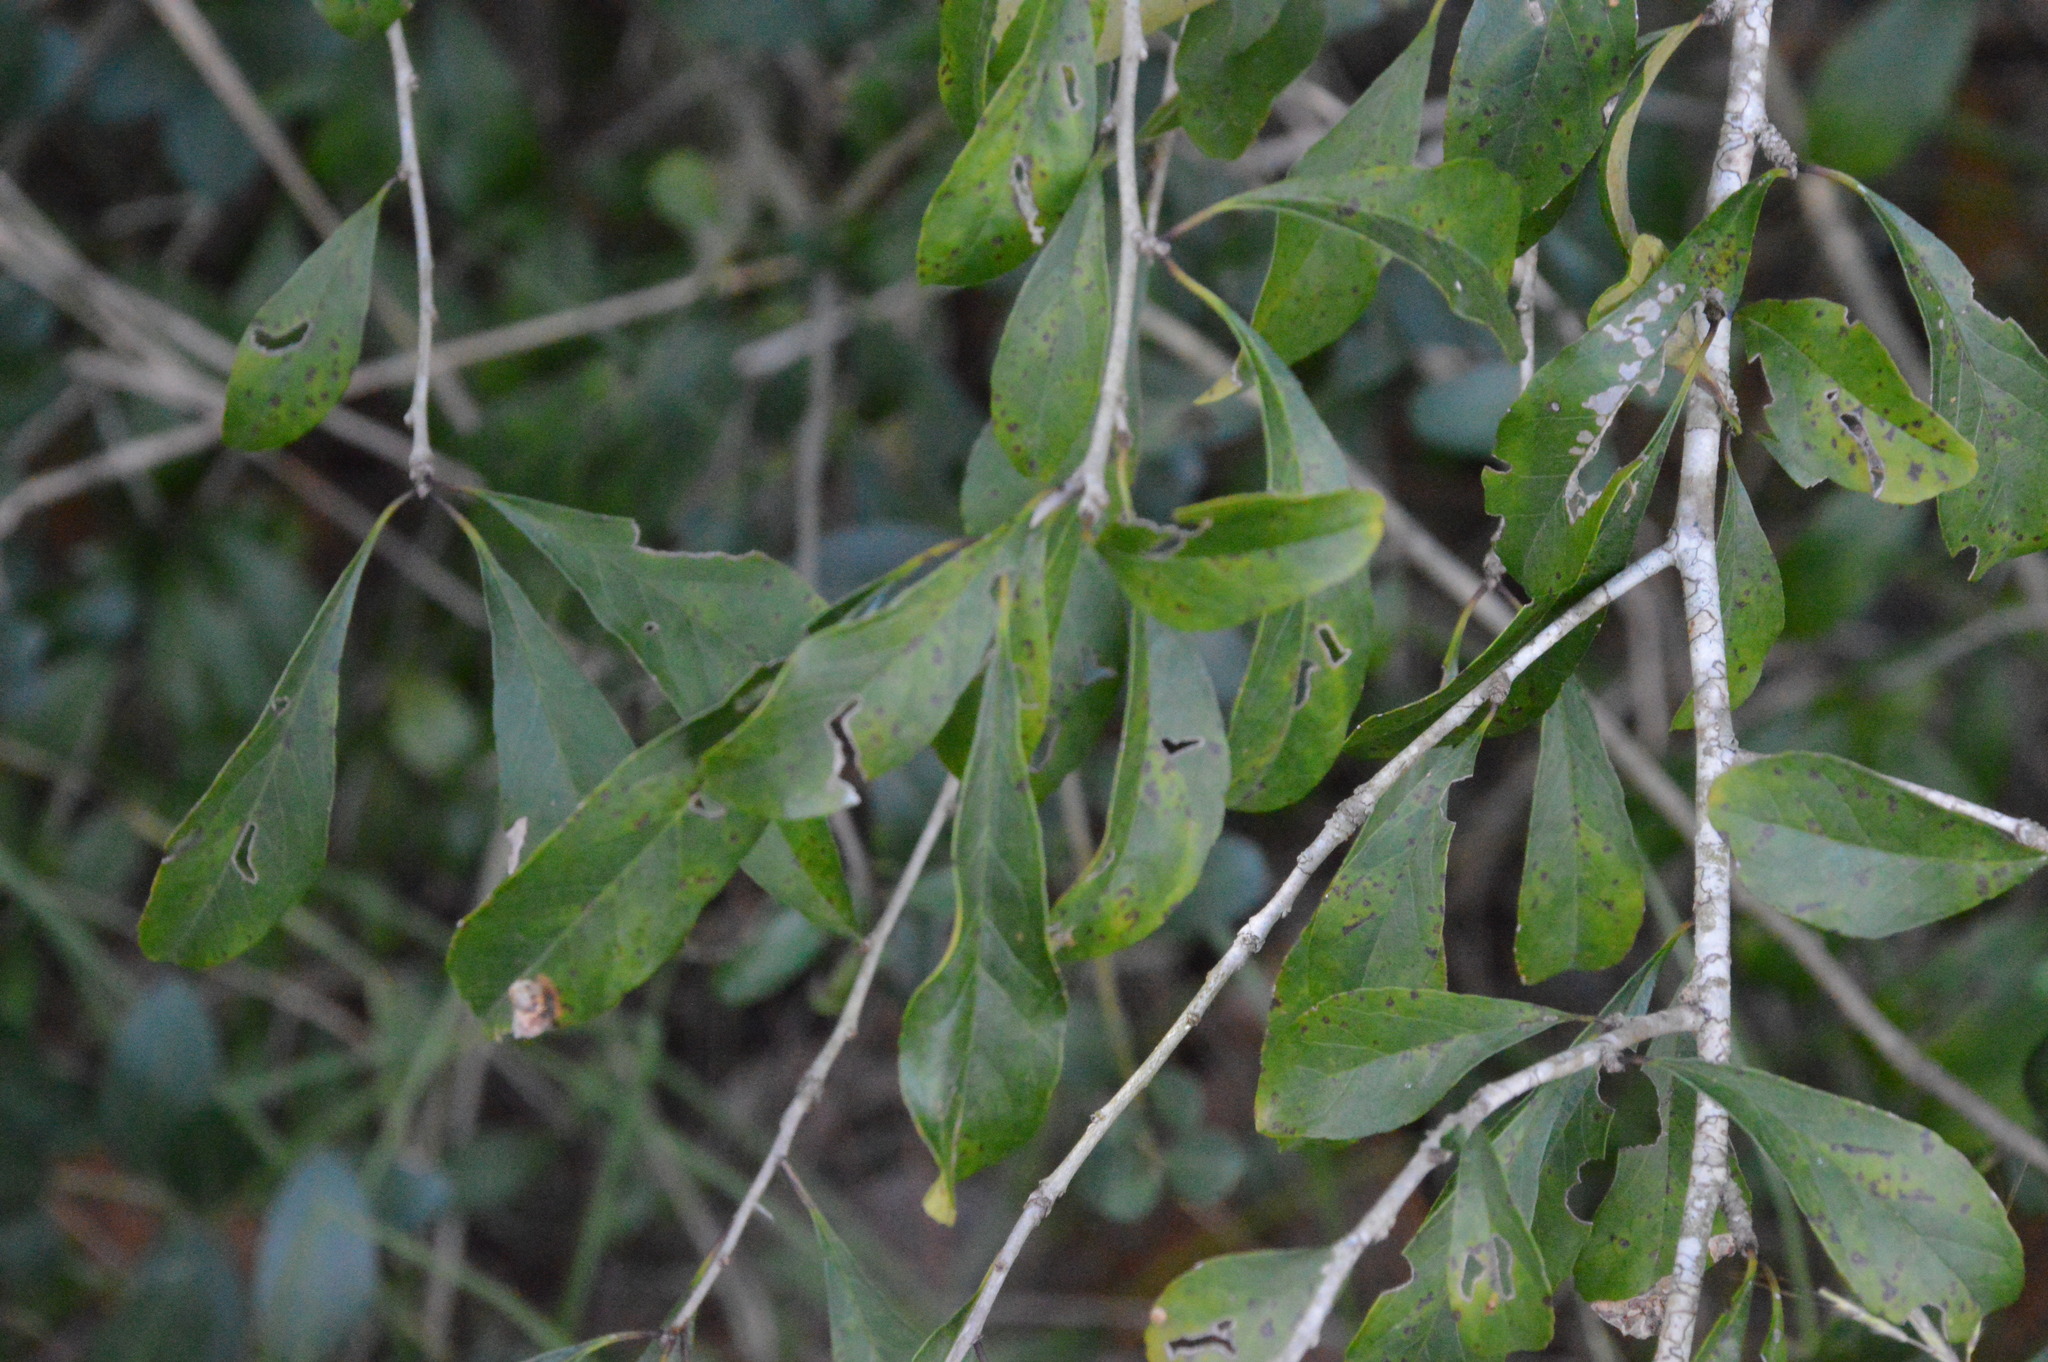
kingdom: Plantae
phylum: Tracheophyta
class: Magnoliopsida
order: Aquifoliales
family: Aquifoliaceae
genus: Ilex
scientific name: Ilex decidua
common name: Possum-haw
